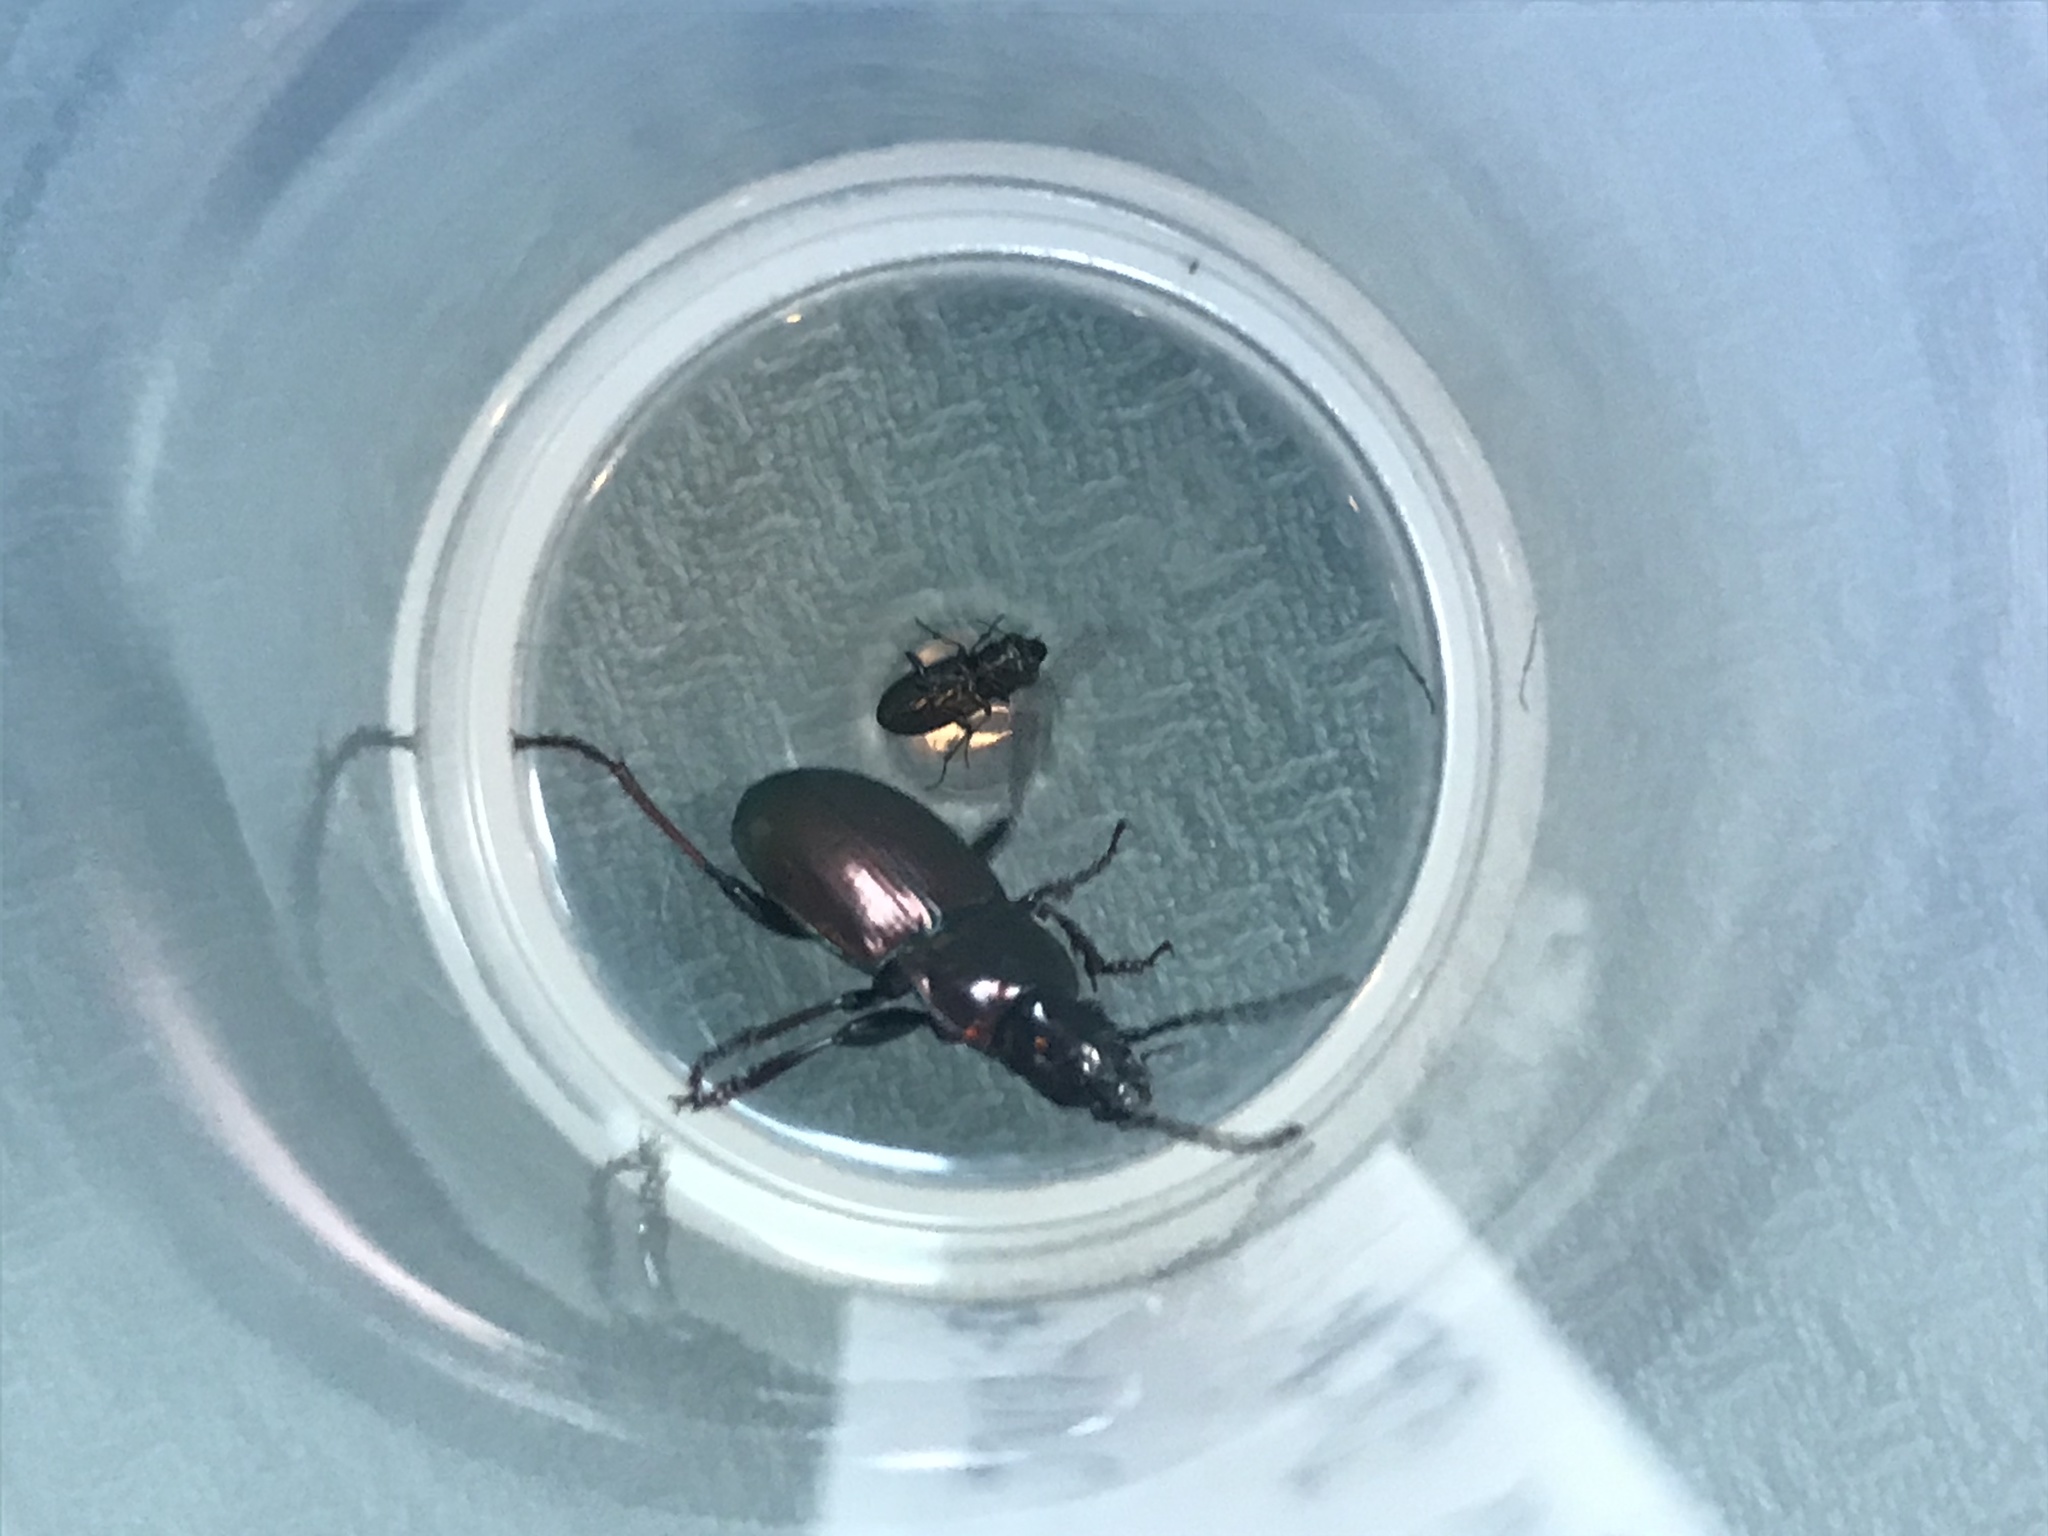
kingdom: Animalia
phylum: Arthropoda
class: Insecta
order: Coleoptera
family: Carabidae
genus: Pterostichus
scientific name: Pterostichus burmeisteri
